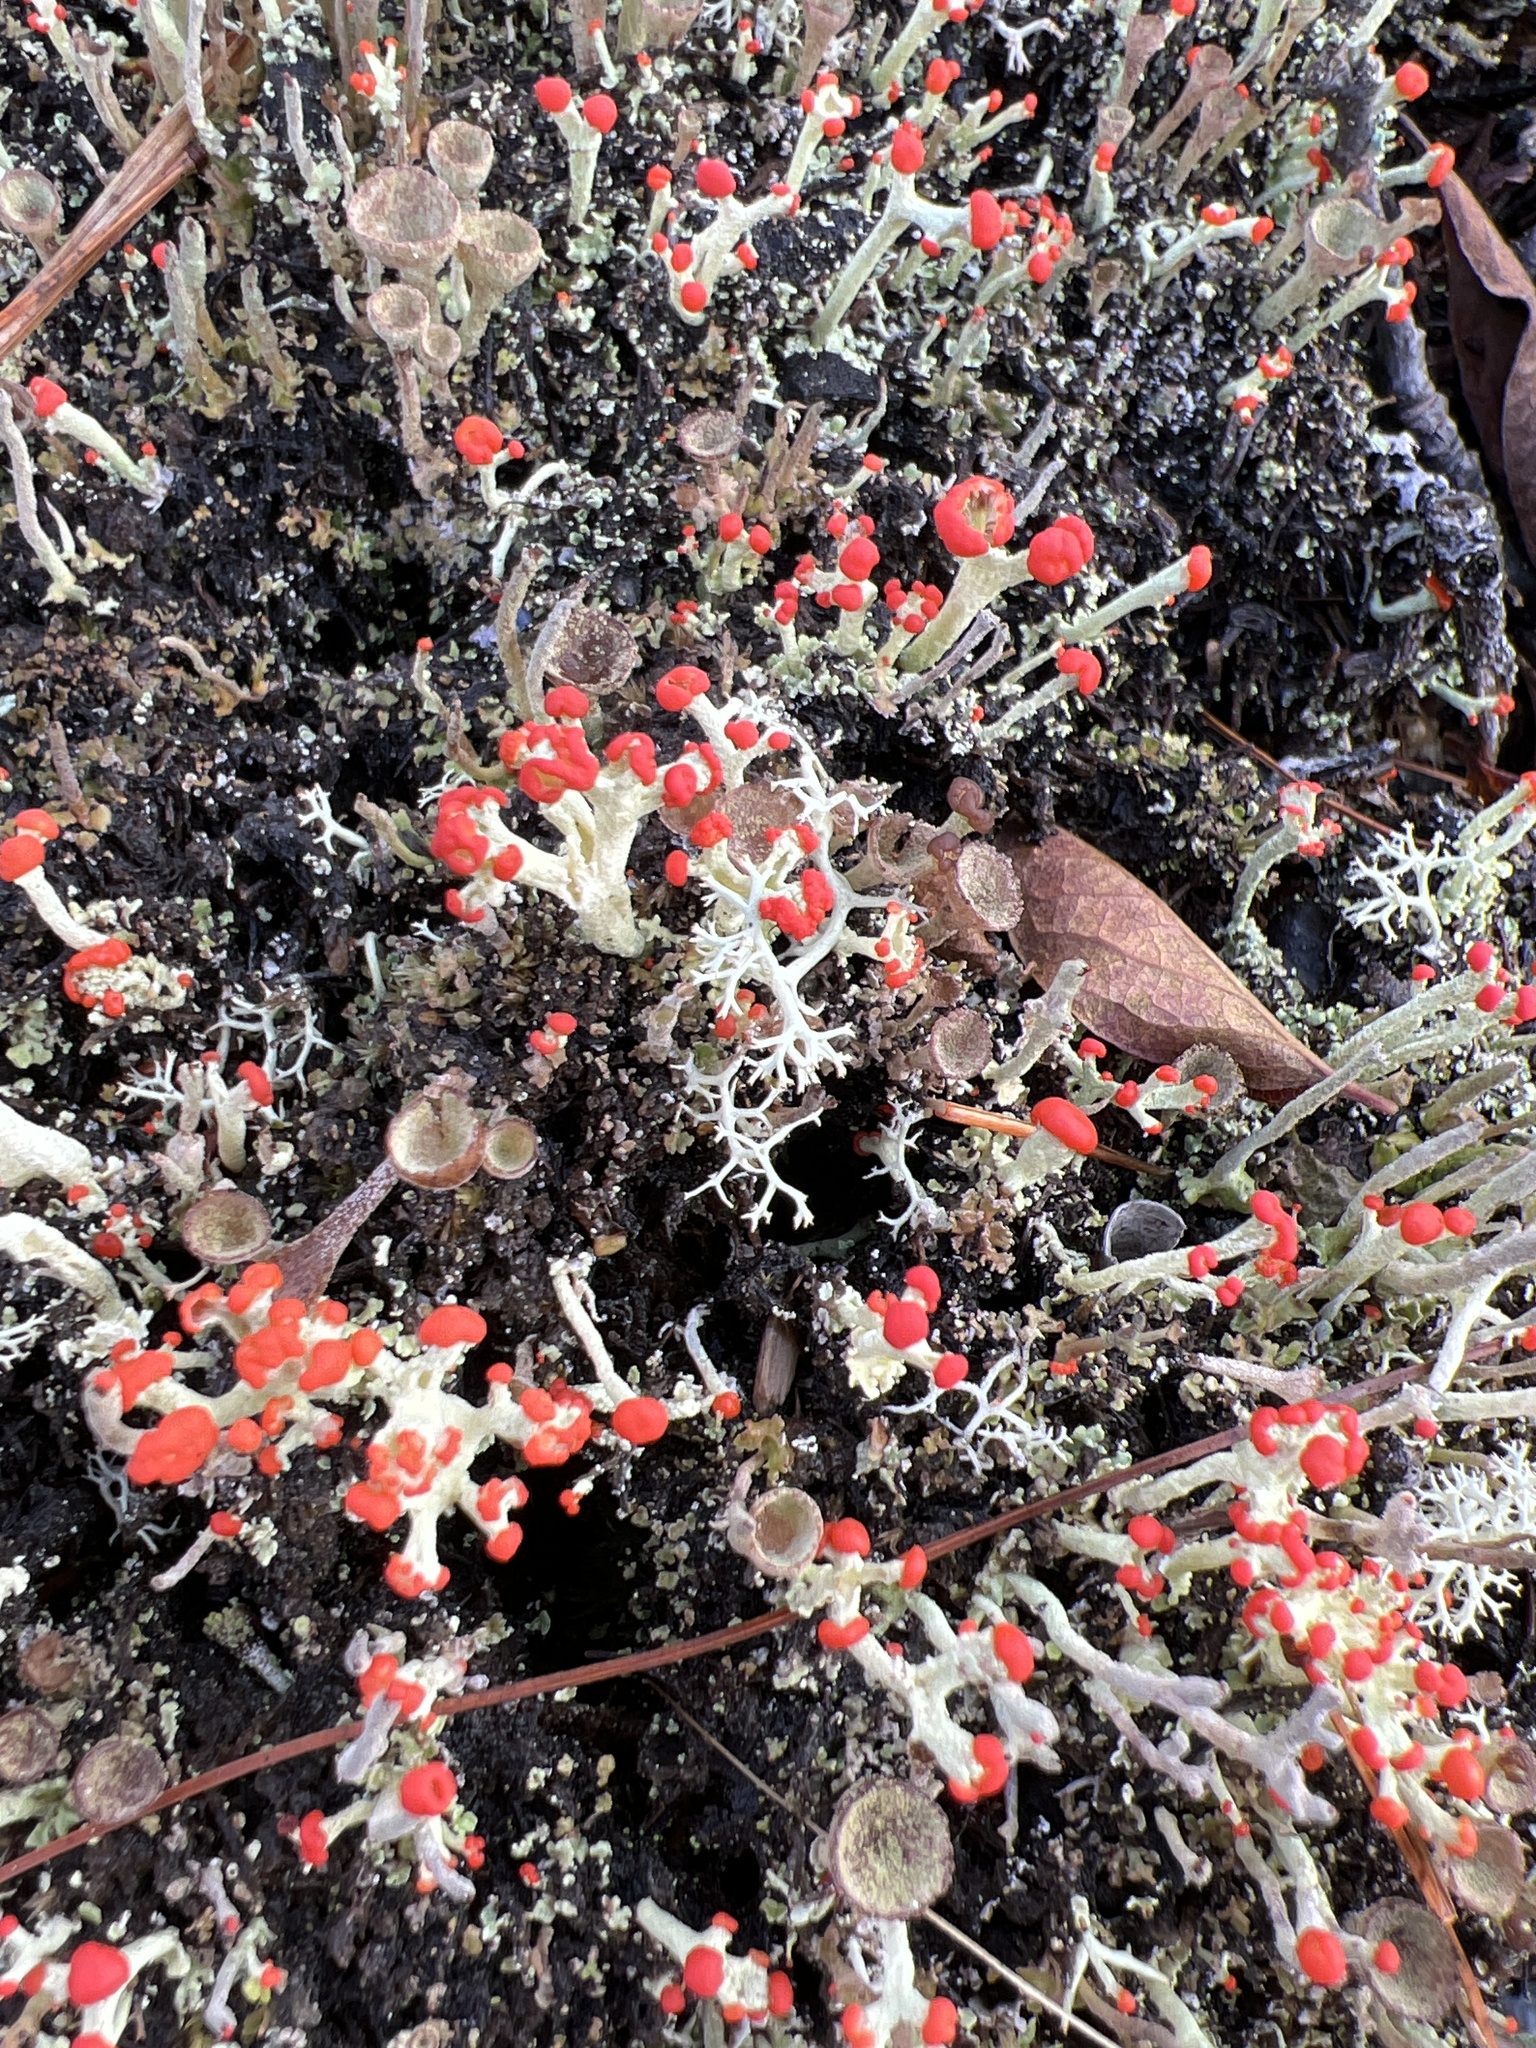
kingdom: Fungi
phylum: Ascomycota
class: Lecanoromycetes
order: Lecanorales
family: Cladoniaceae
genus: Cladonia
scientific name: Cladonia cristatella
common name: British soldier lichen
